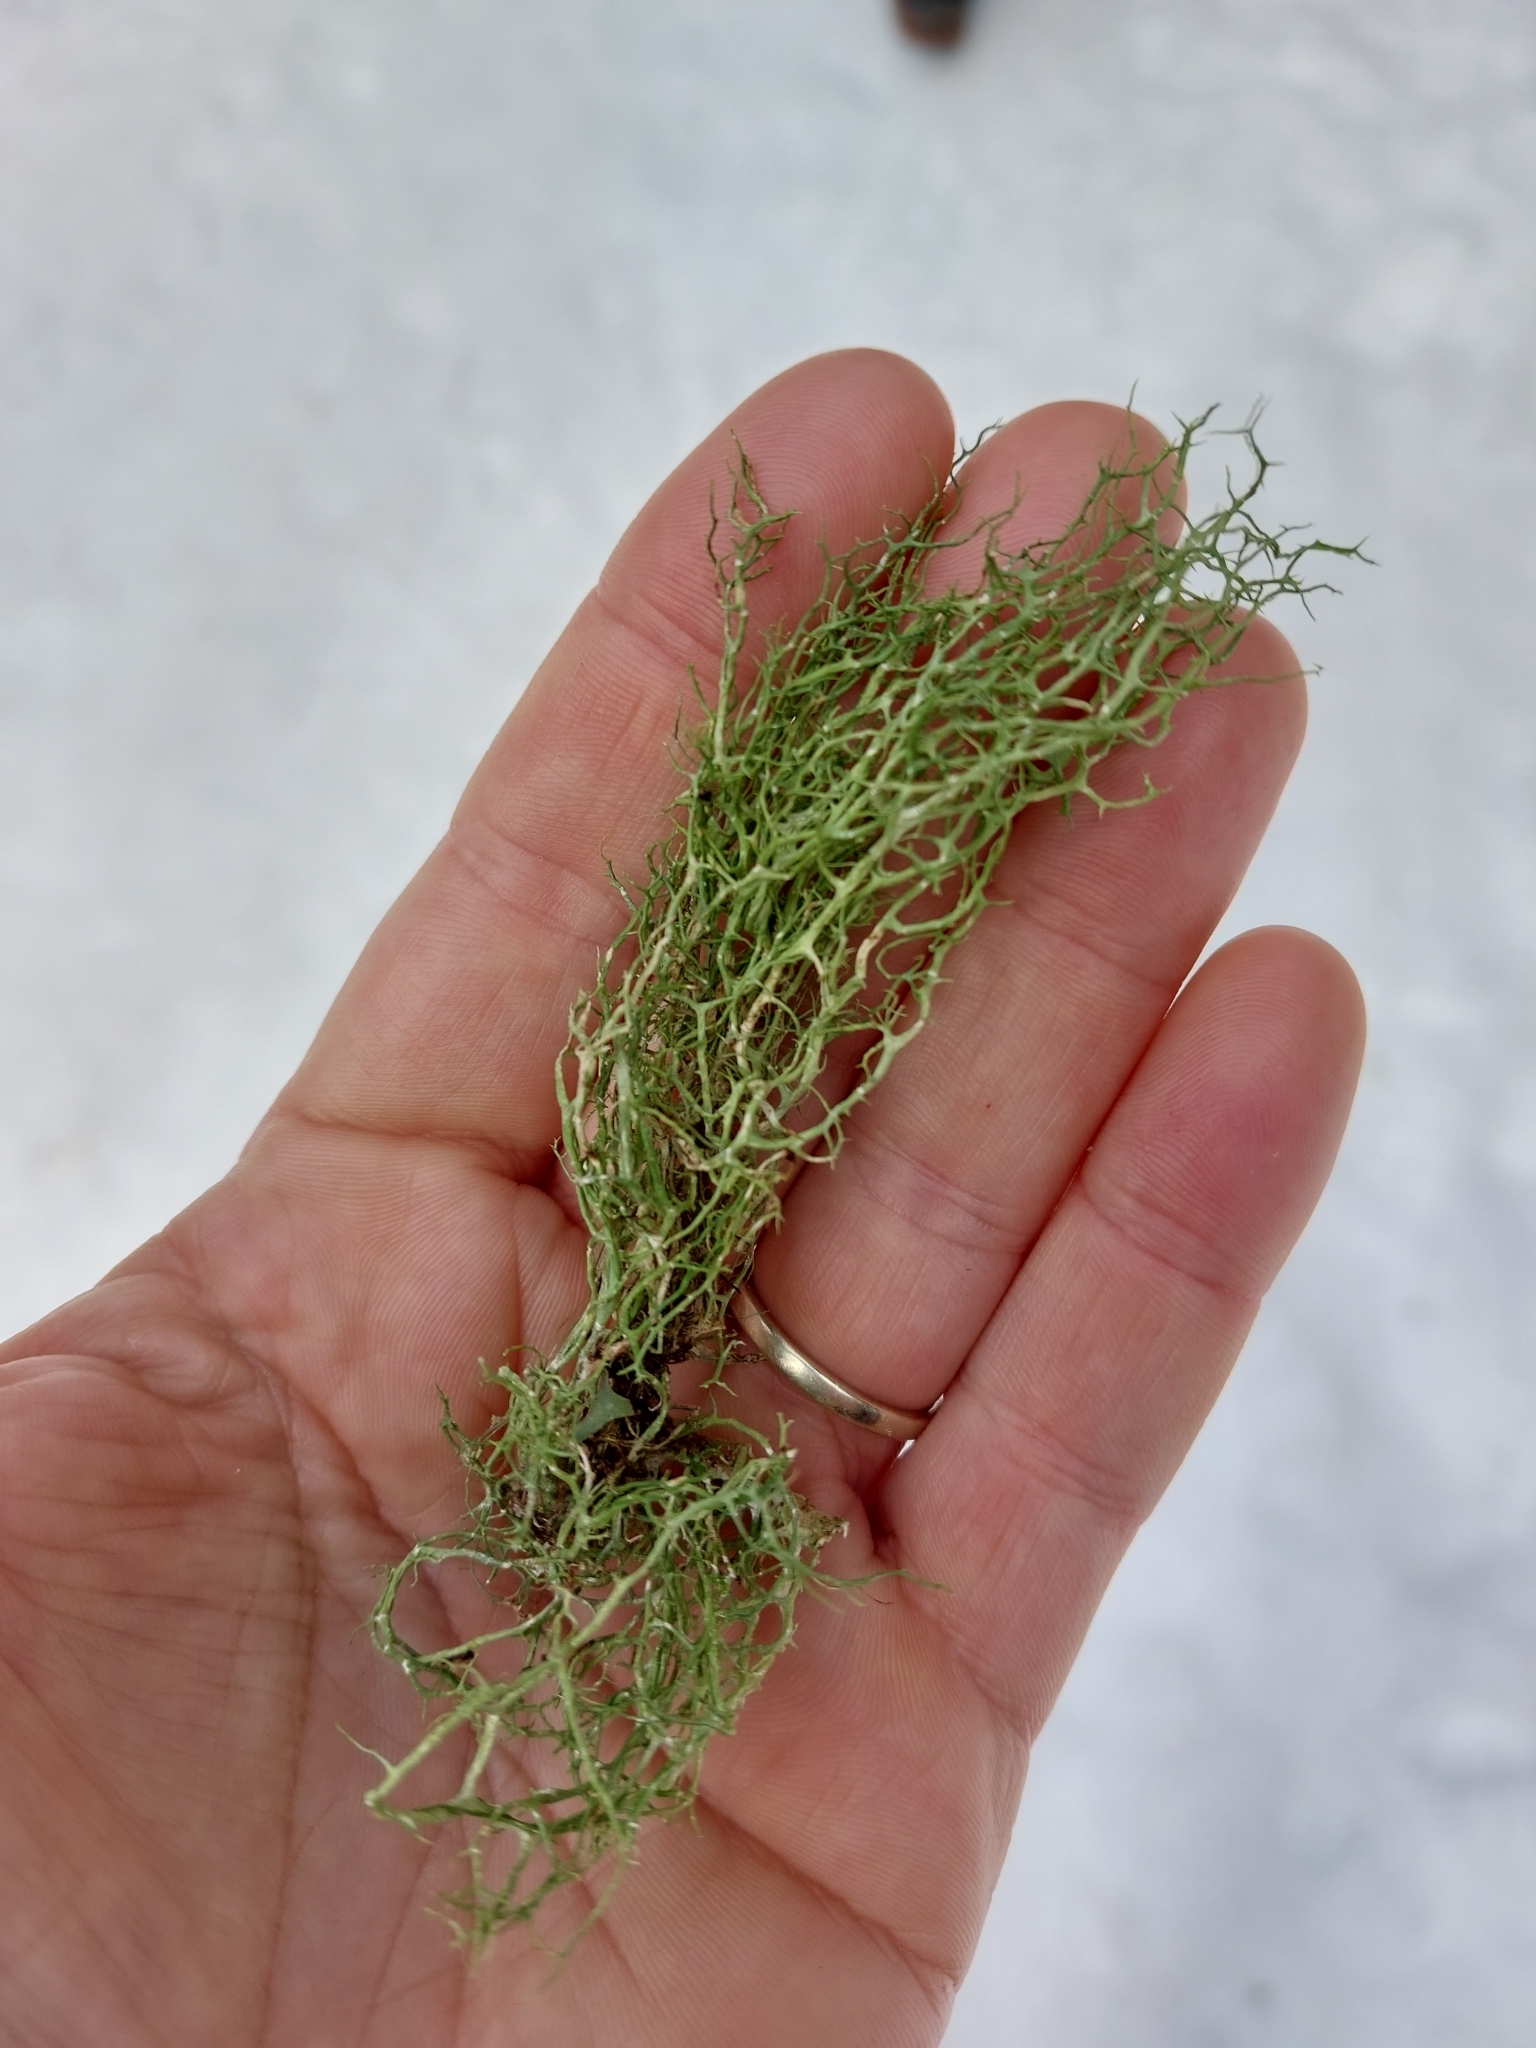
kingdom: Fungi
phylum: Ascomycota
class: Lecanoromycetes
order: Lecanorales
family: Parmeliaceae
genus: Evernia
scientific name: Evernia divaricata
